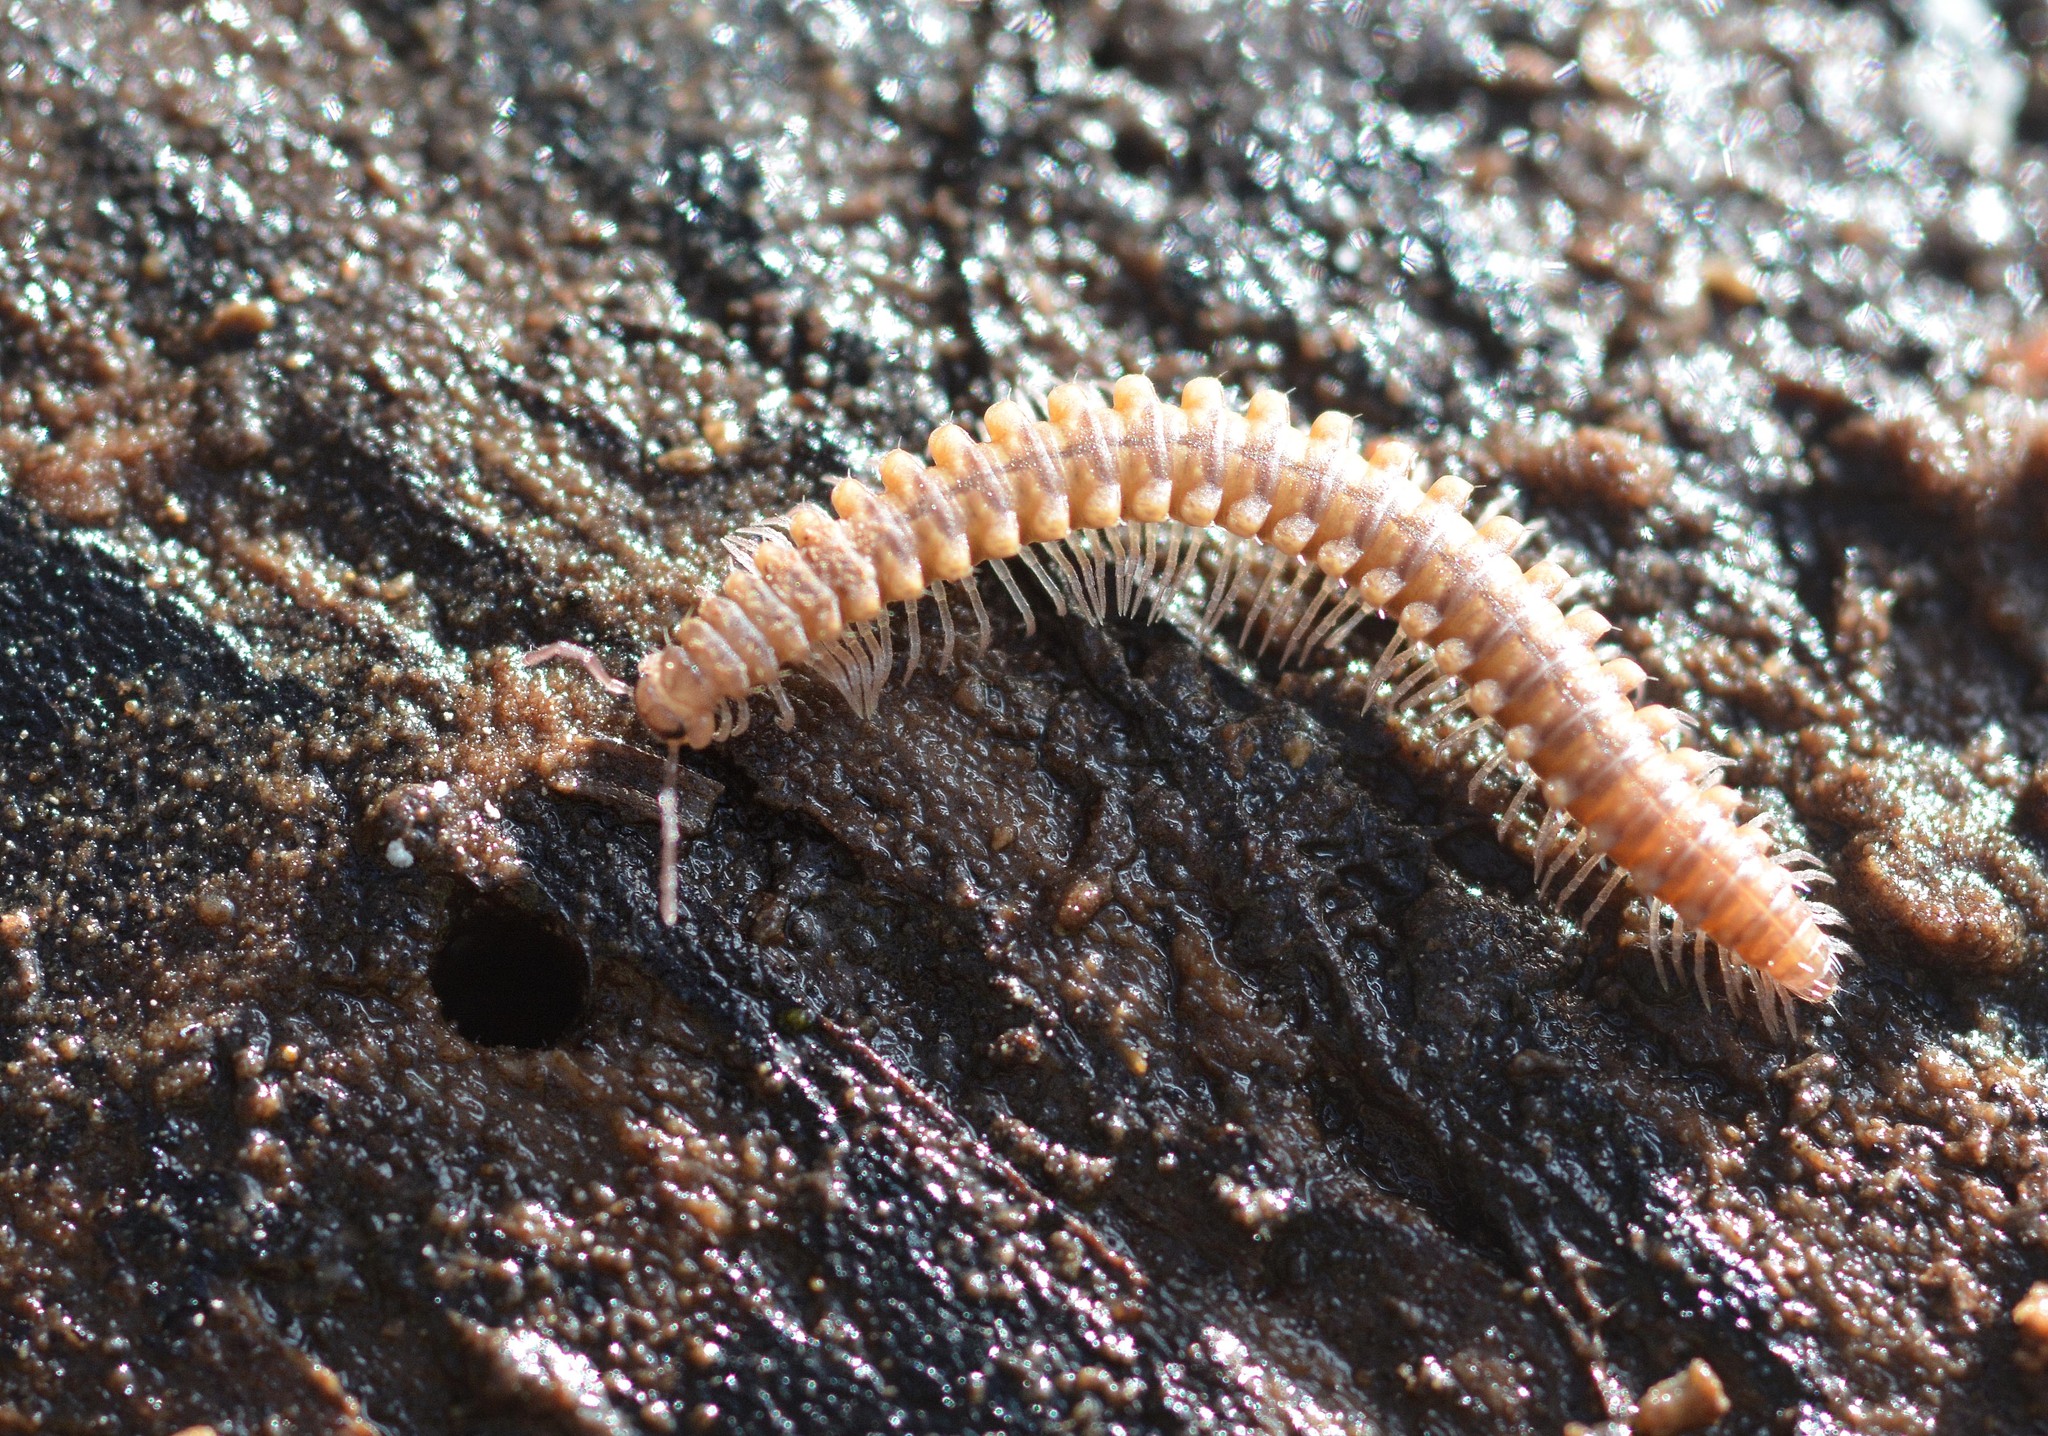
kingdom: Animalia
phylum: Arthropoda
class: Diplopoda
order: Chordeumatida
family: Craspedosomatidae
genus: Nanogona
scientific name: Nanogona polydesmoides
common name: Eyed flat-backed millipede
